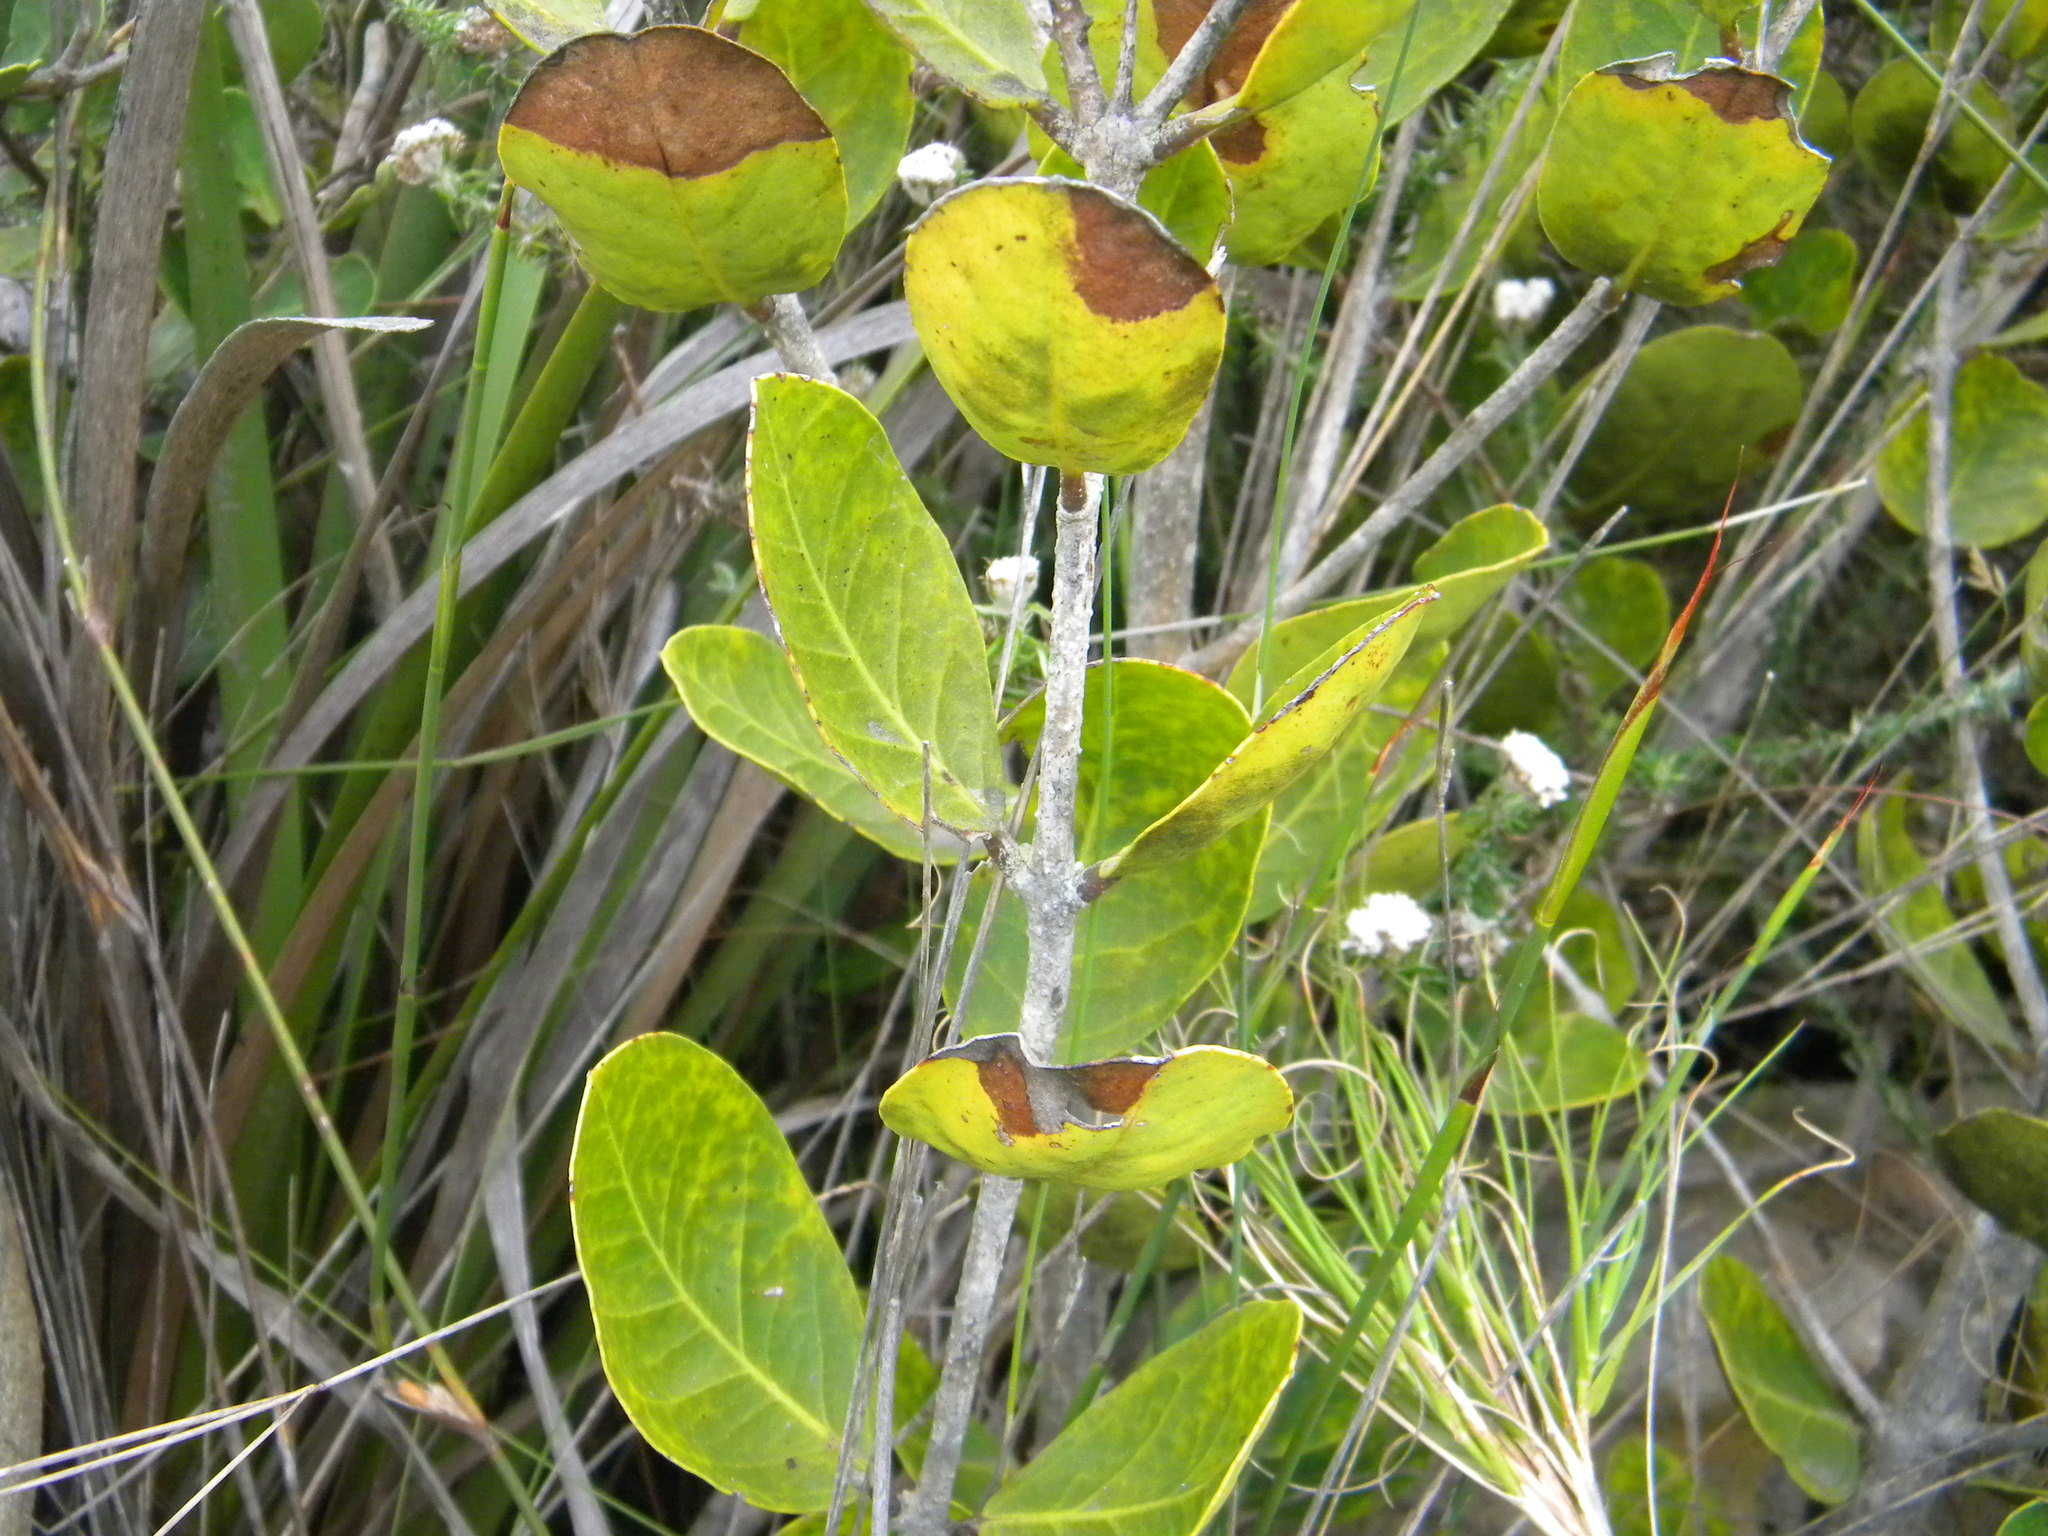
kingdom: Plantae
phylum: Tracheophyta
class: Magnoliopsida
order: Lamiales
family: Oleaceae
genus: Olea
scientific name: Olea capensis
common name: Black ironwood
